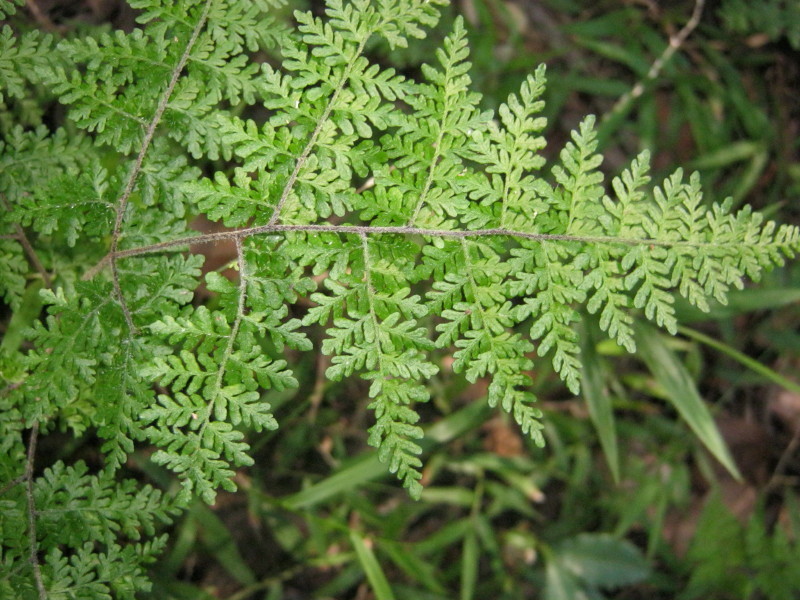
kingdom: Plantae
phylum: Tracheophyta
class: Polypodiopsida
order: Polypodiales
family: Pteridaceae
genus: Cheilanthes
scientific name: Cheilanthes bergiana
